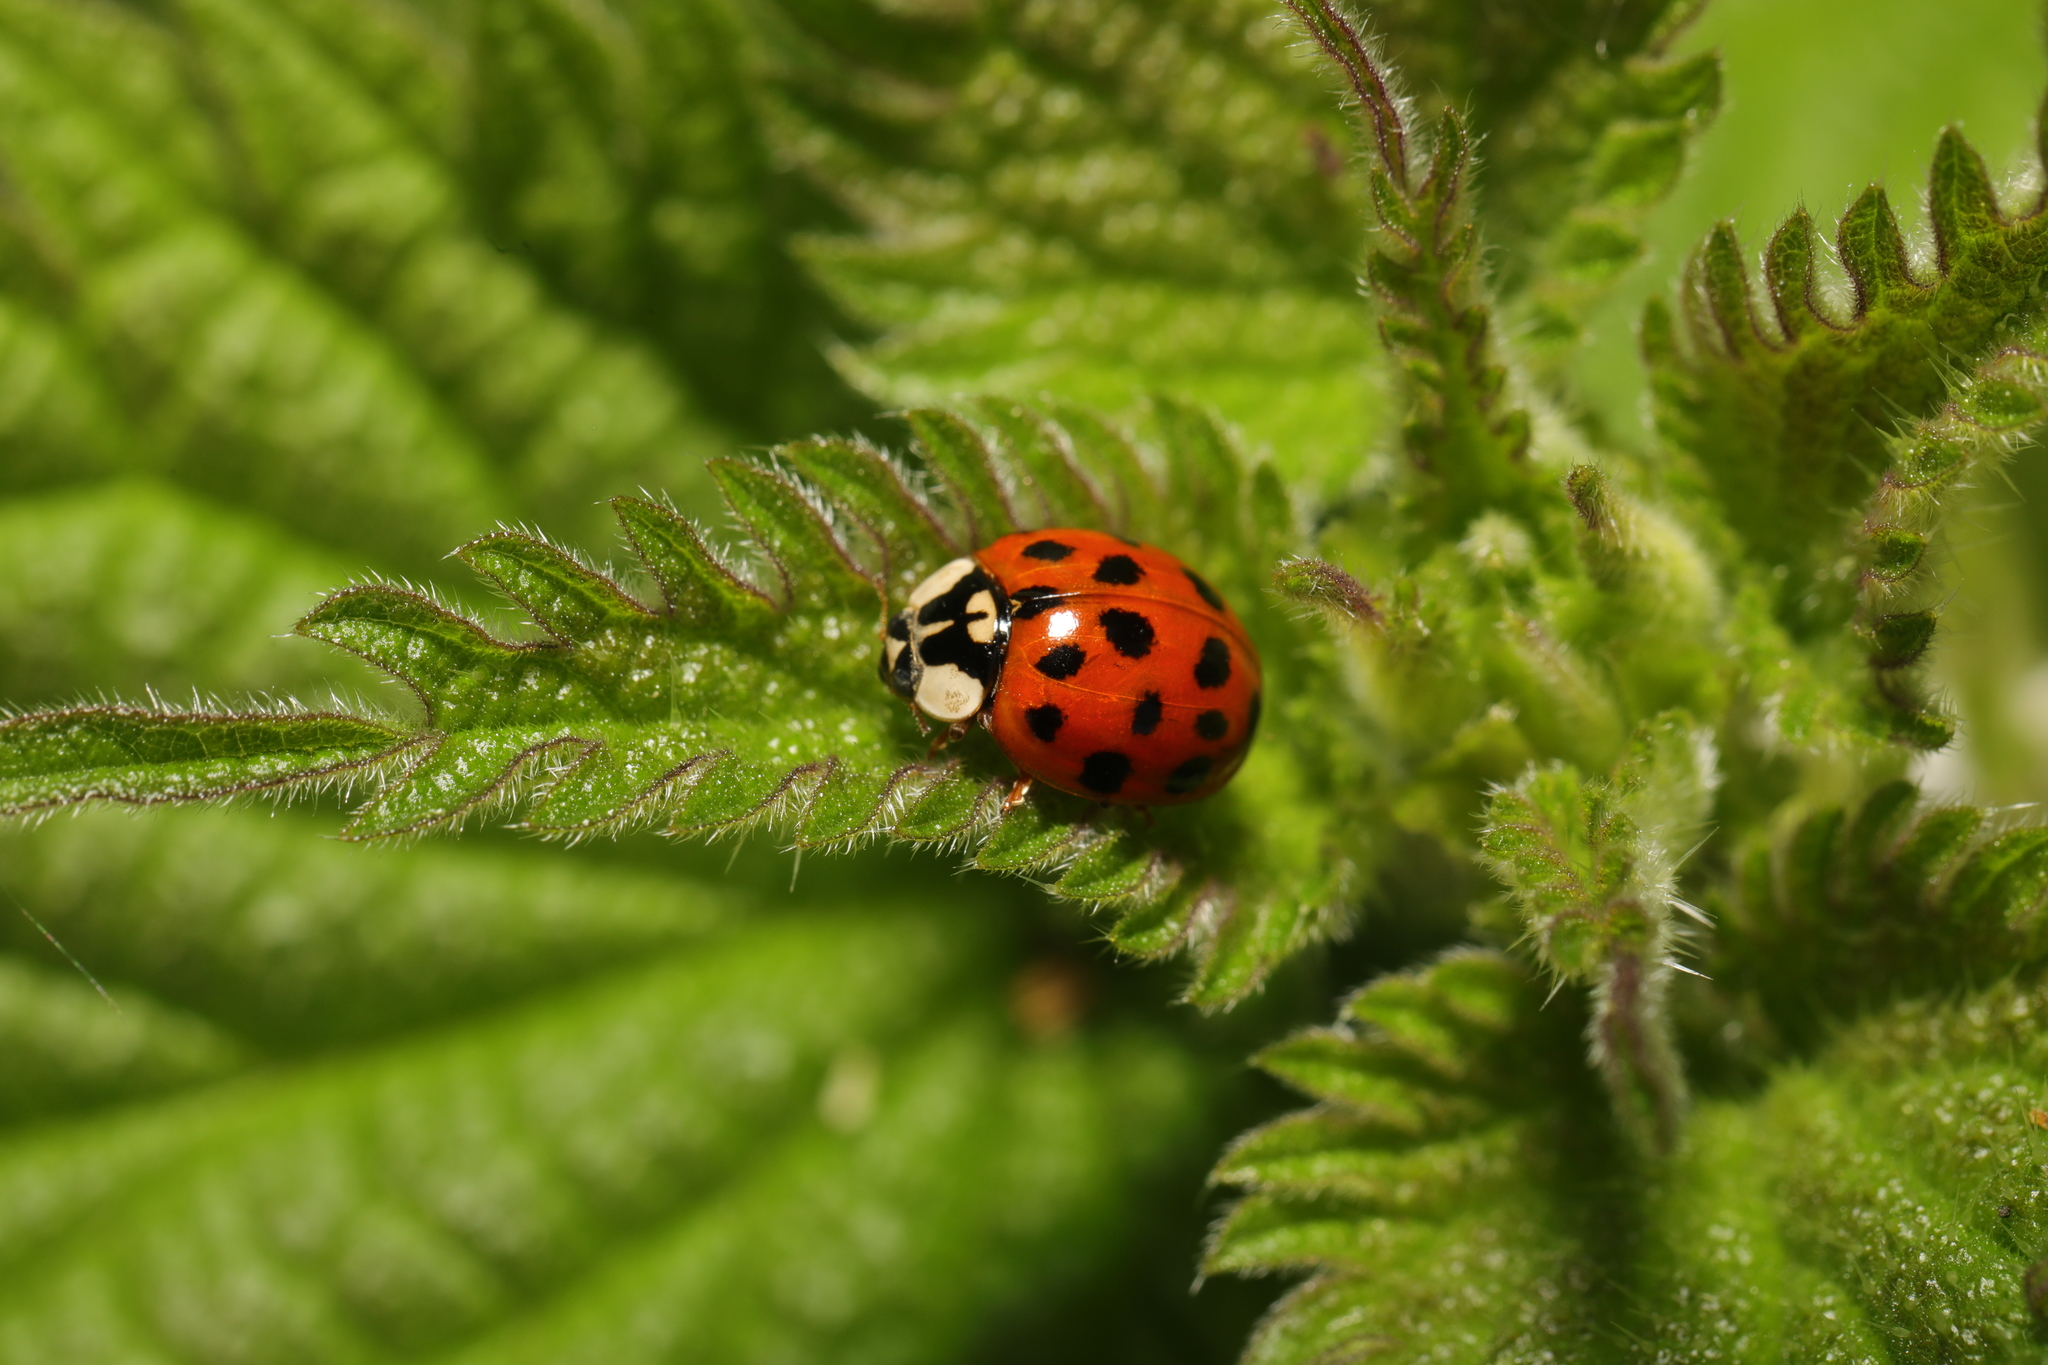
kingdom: Animalia
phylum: Arthropoda
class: Insecta
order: Coleoptera
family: Coccinellidae
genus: Harmonia
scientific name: Harmonia axyridis
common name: Harlequin ladybird
